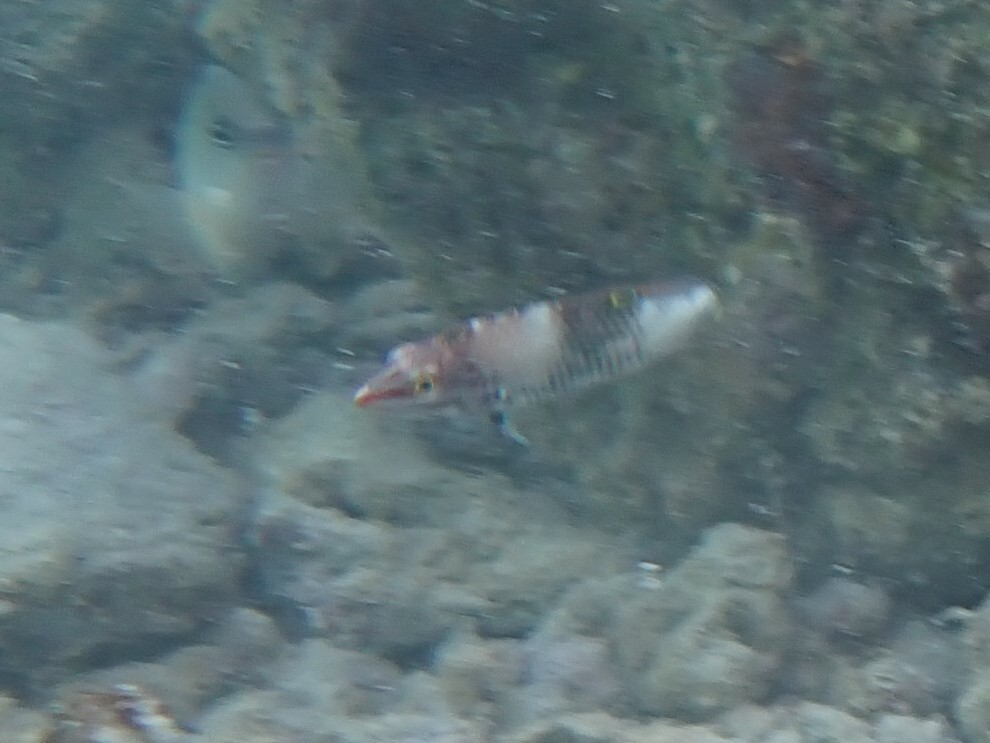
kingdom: Animalia
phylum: Chordata
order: Perciformes
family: Labridae
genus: Halichoeres
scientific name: Halichoeres hortulanus
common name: Checkerboard wrasse
